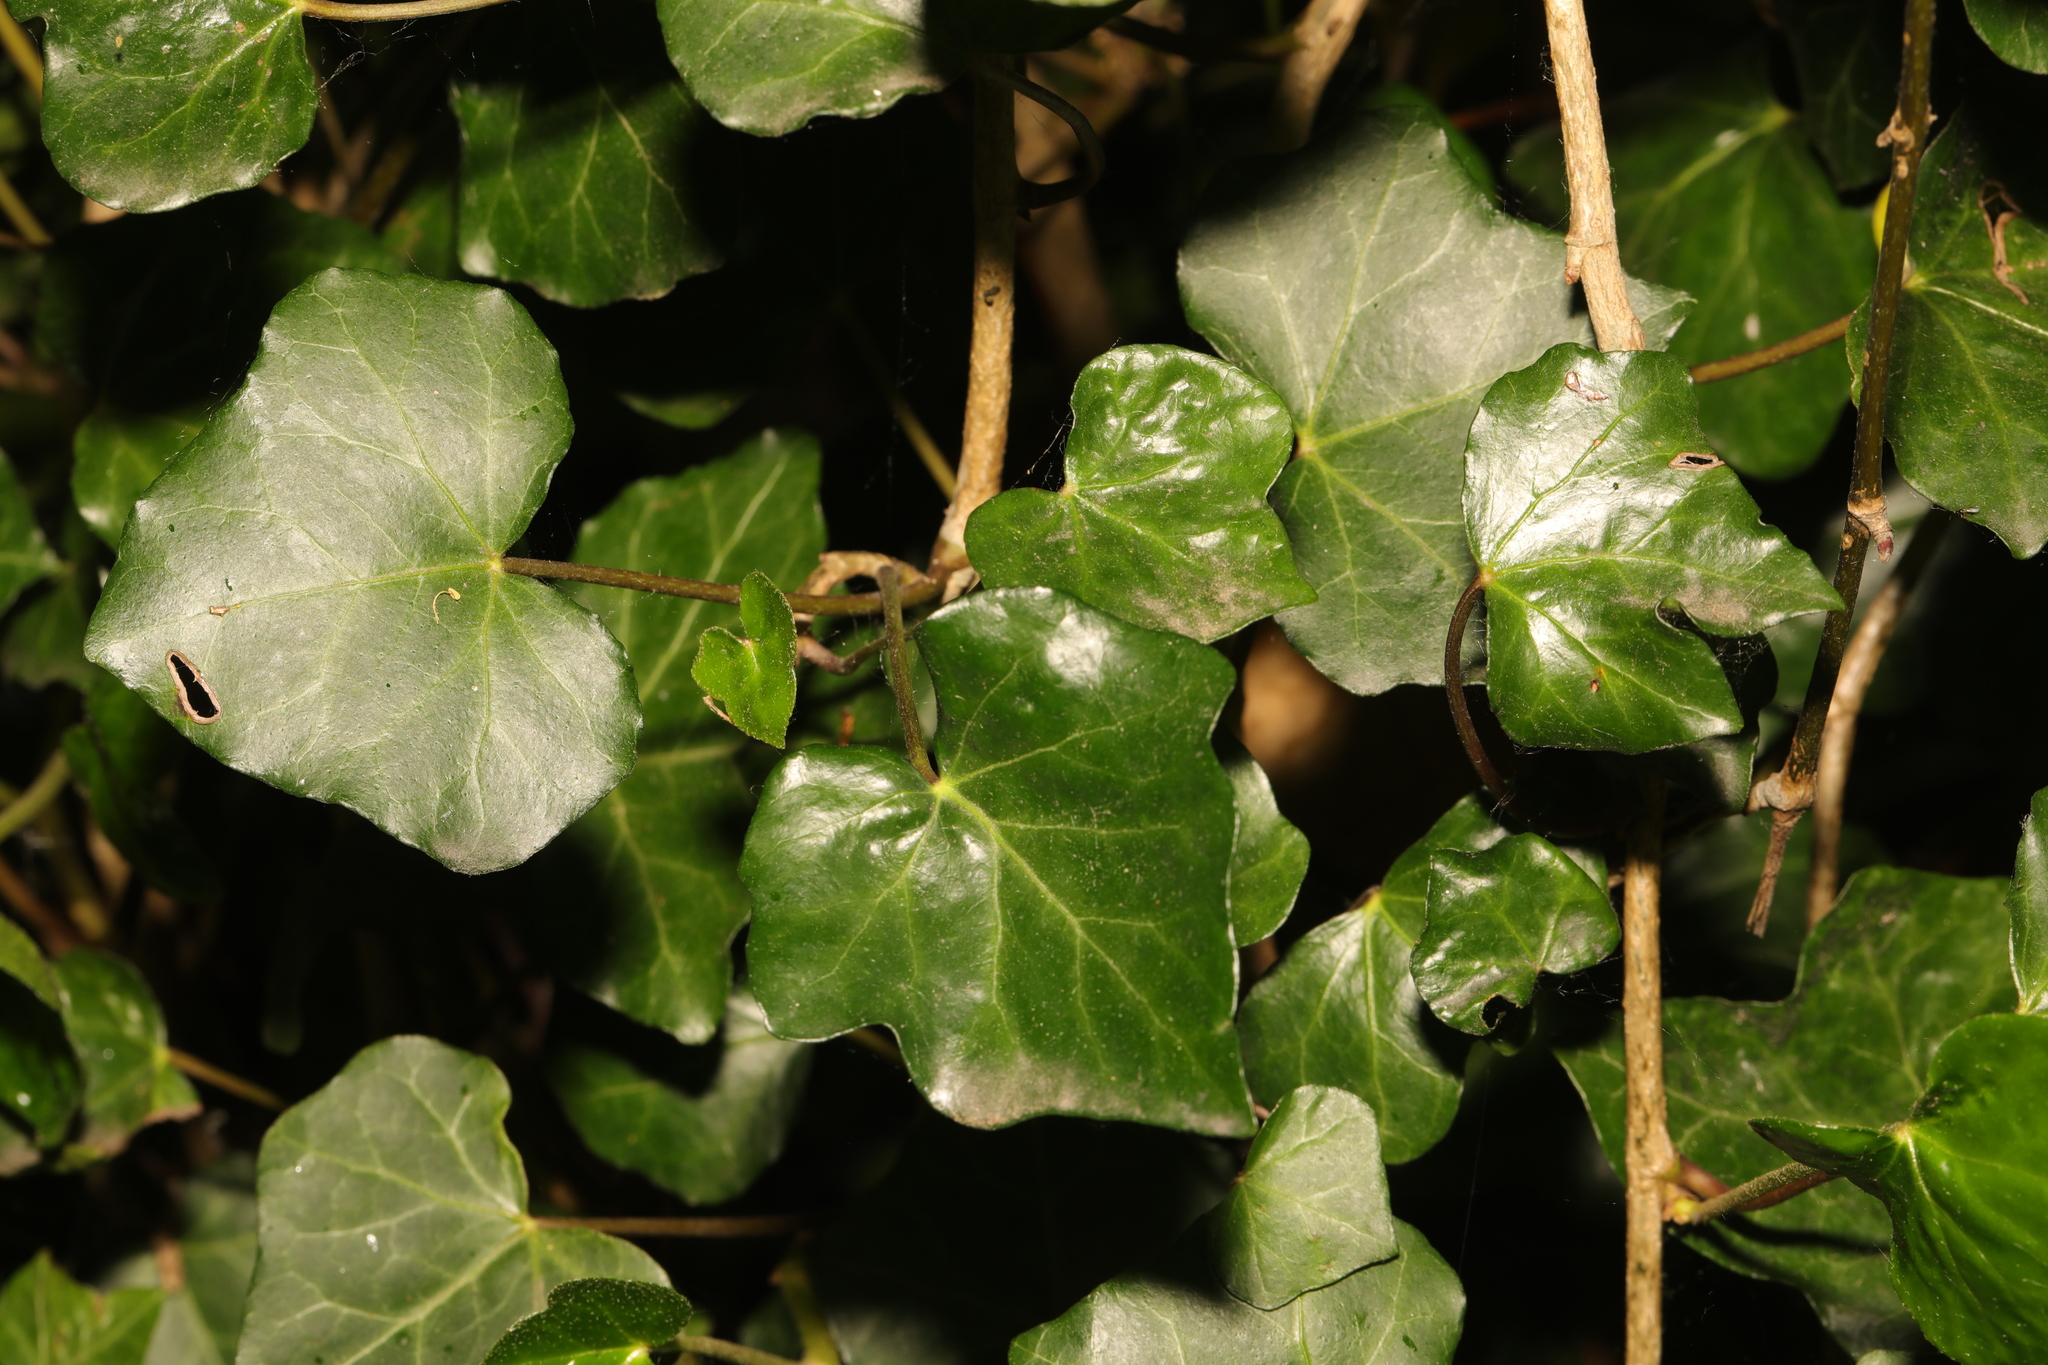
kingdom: Plantae
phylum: Tracheophyta
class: Magnoliopsida
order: Apiales
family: Araliaceae
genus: Hedera
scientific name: Hedera helix
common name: Ivy
